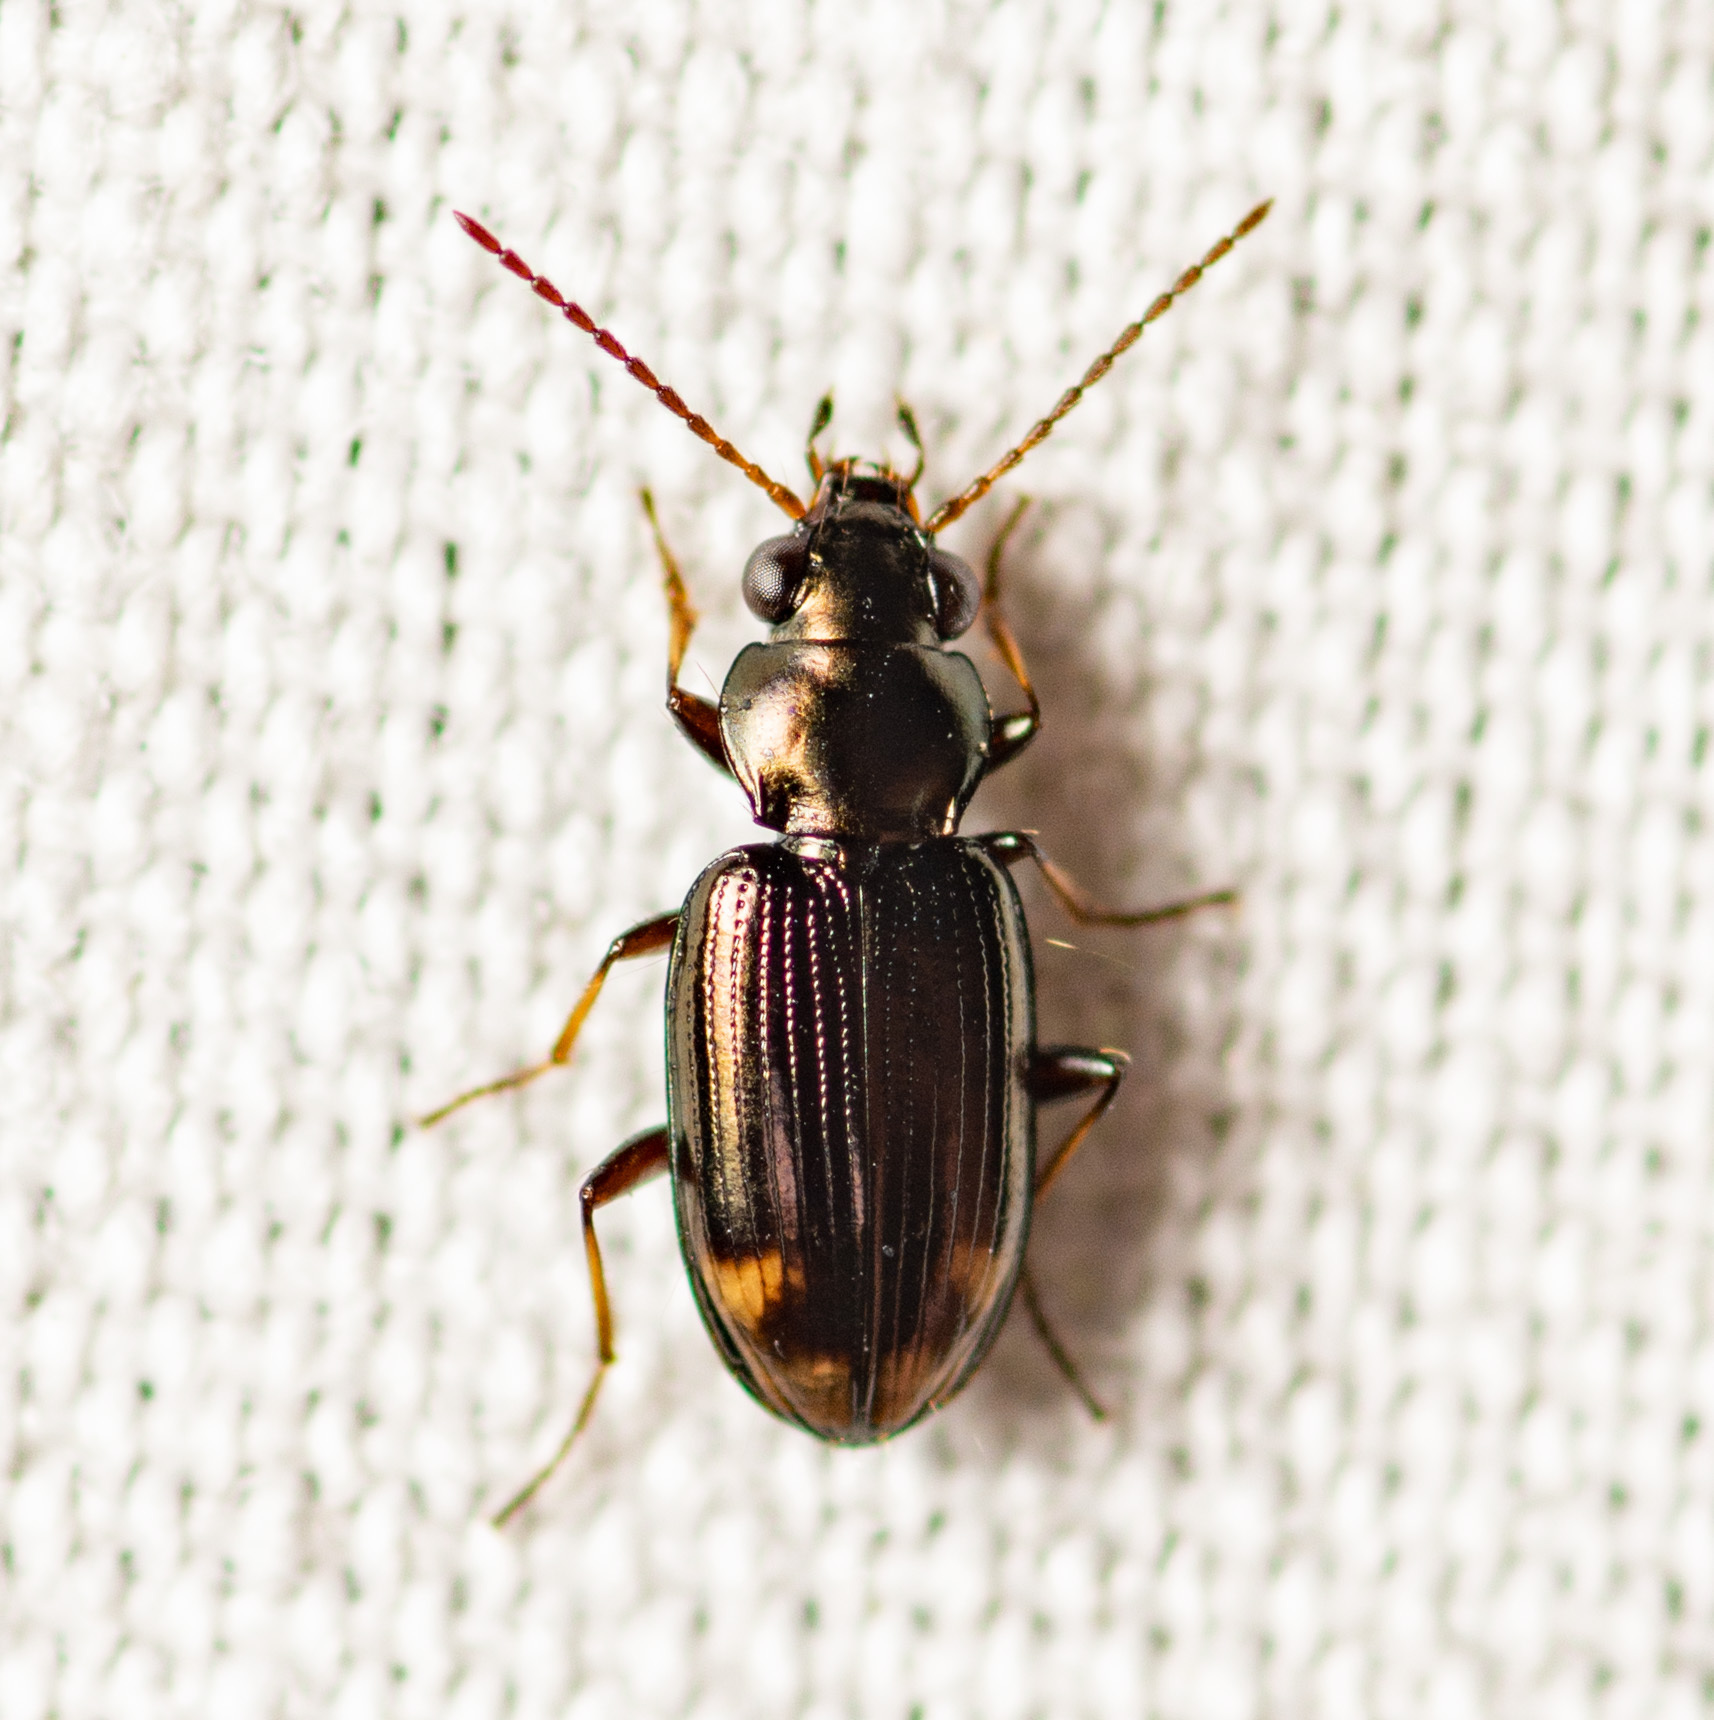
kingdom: Animalia
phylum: Arthropoda
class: Insecta
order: Coleoptera
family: Carabidae
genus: Bembidion
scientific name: Bembidion rapidum
